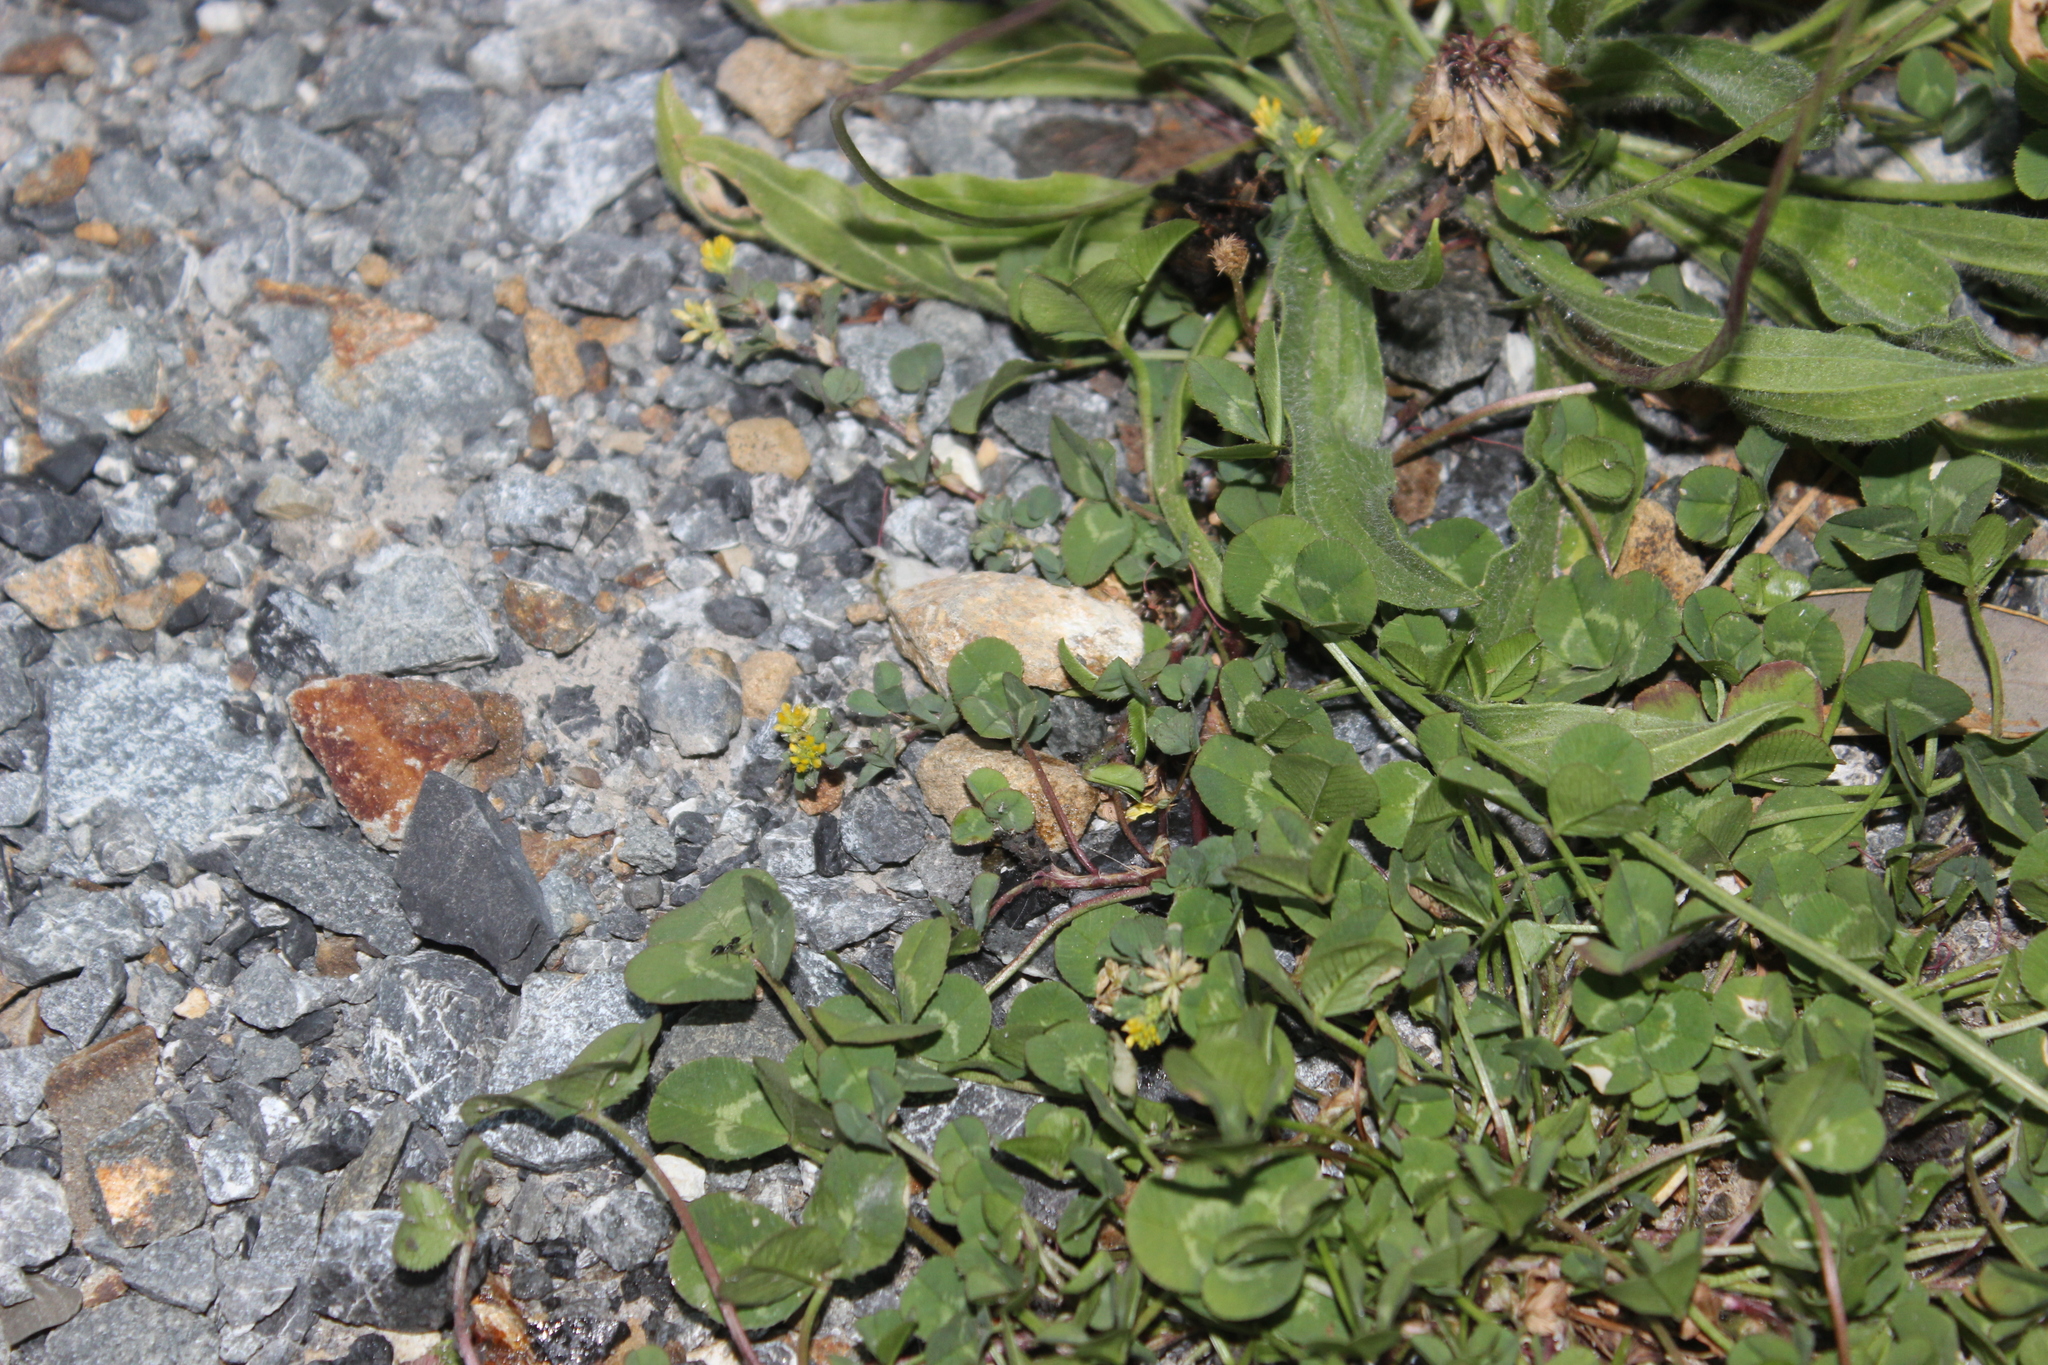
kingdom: Plantae
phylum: Tracheophyta
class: Magnoliopsida
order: Fabales
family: Fabaceae
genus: Trifolium
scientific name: Trifolium dubium
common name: Suckling clover
